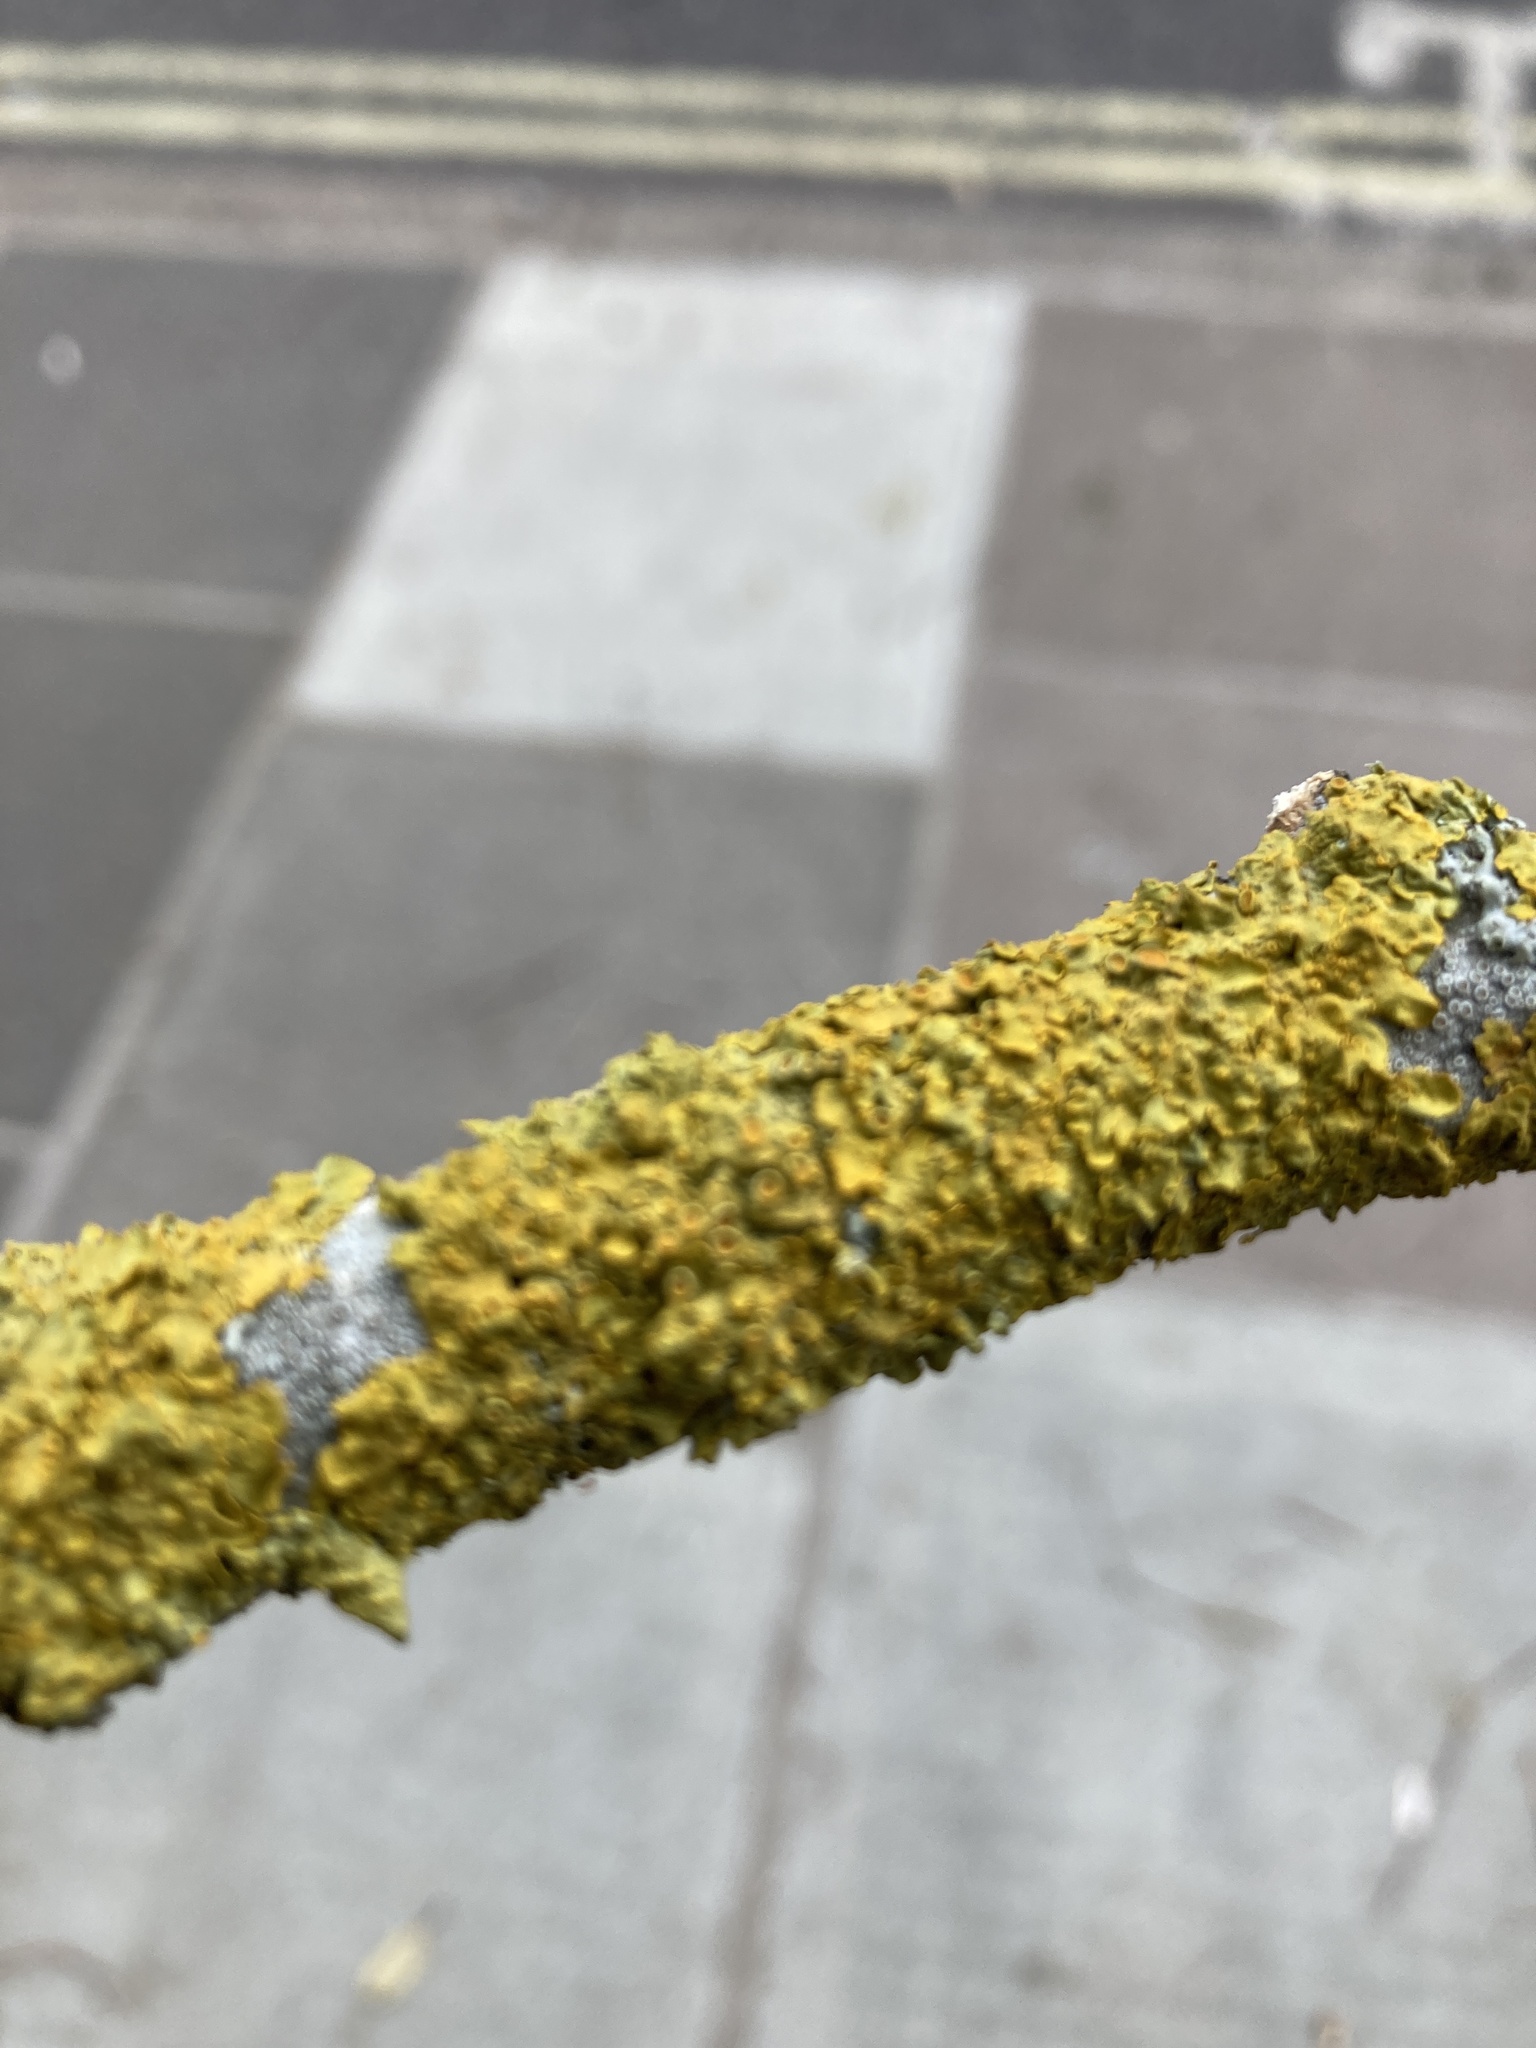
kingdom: Fungi
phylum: Ascomycota
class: Lecanoromycetes
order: Teloschistales
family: Teloschistaceae
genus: Xanthoria
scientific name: Xanthoria parietina
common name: Common orange lichen
